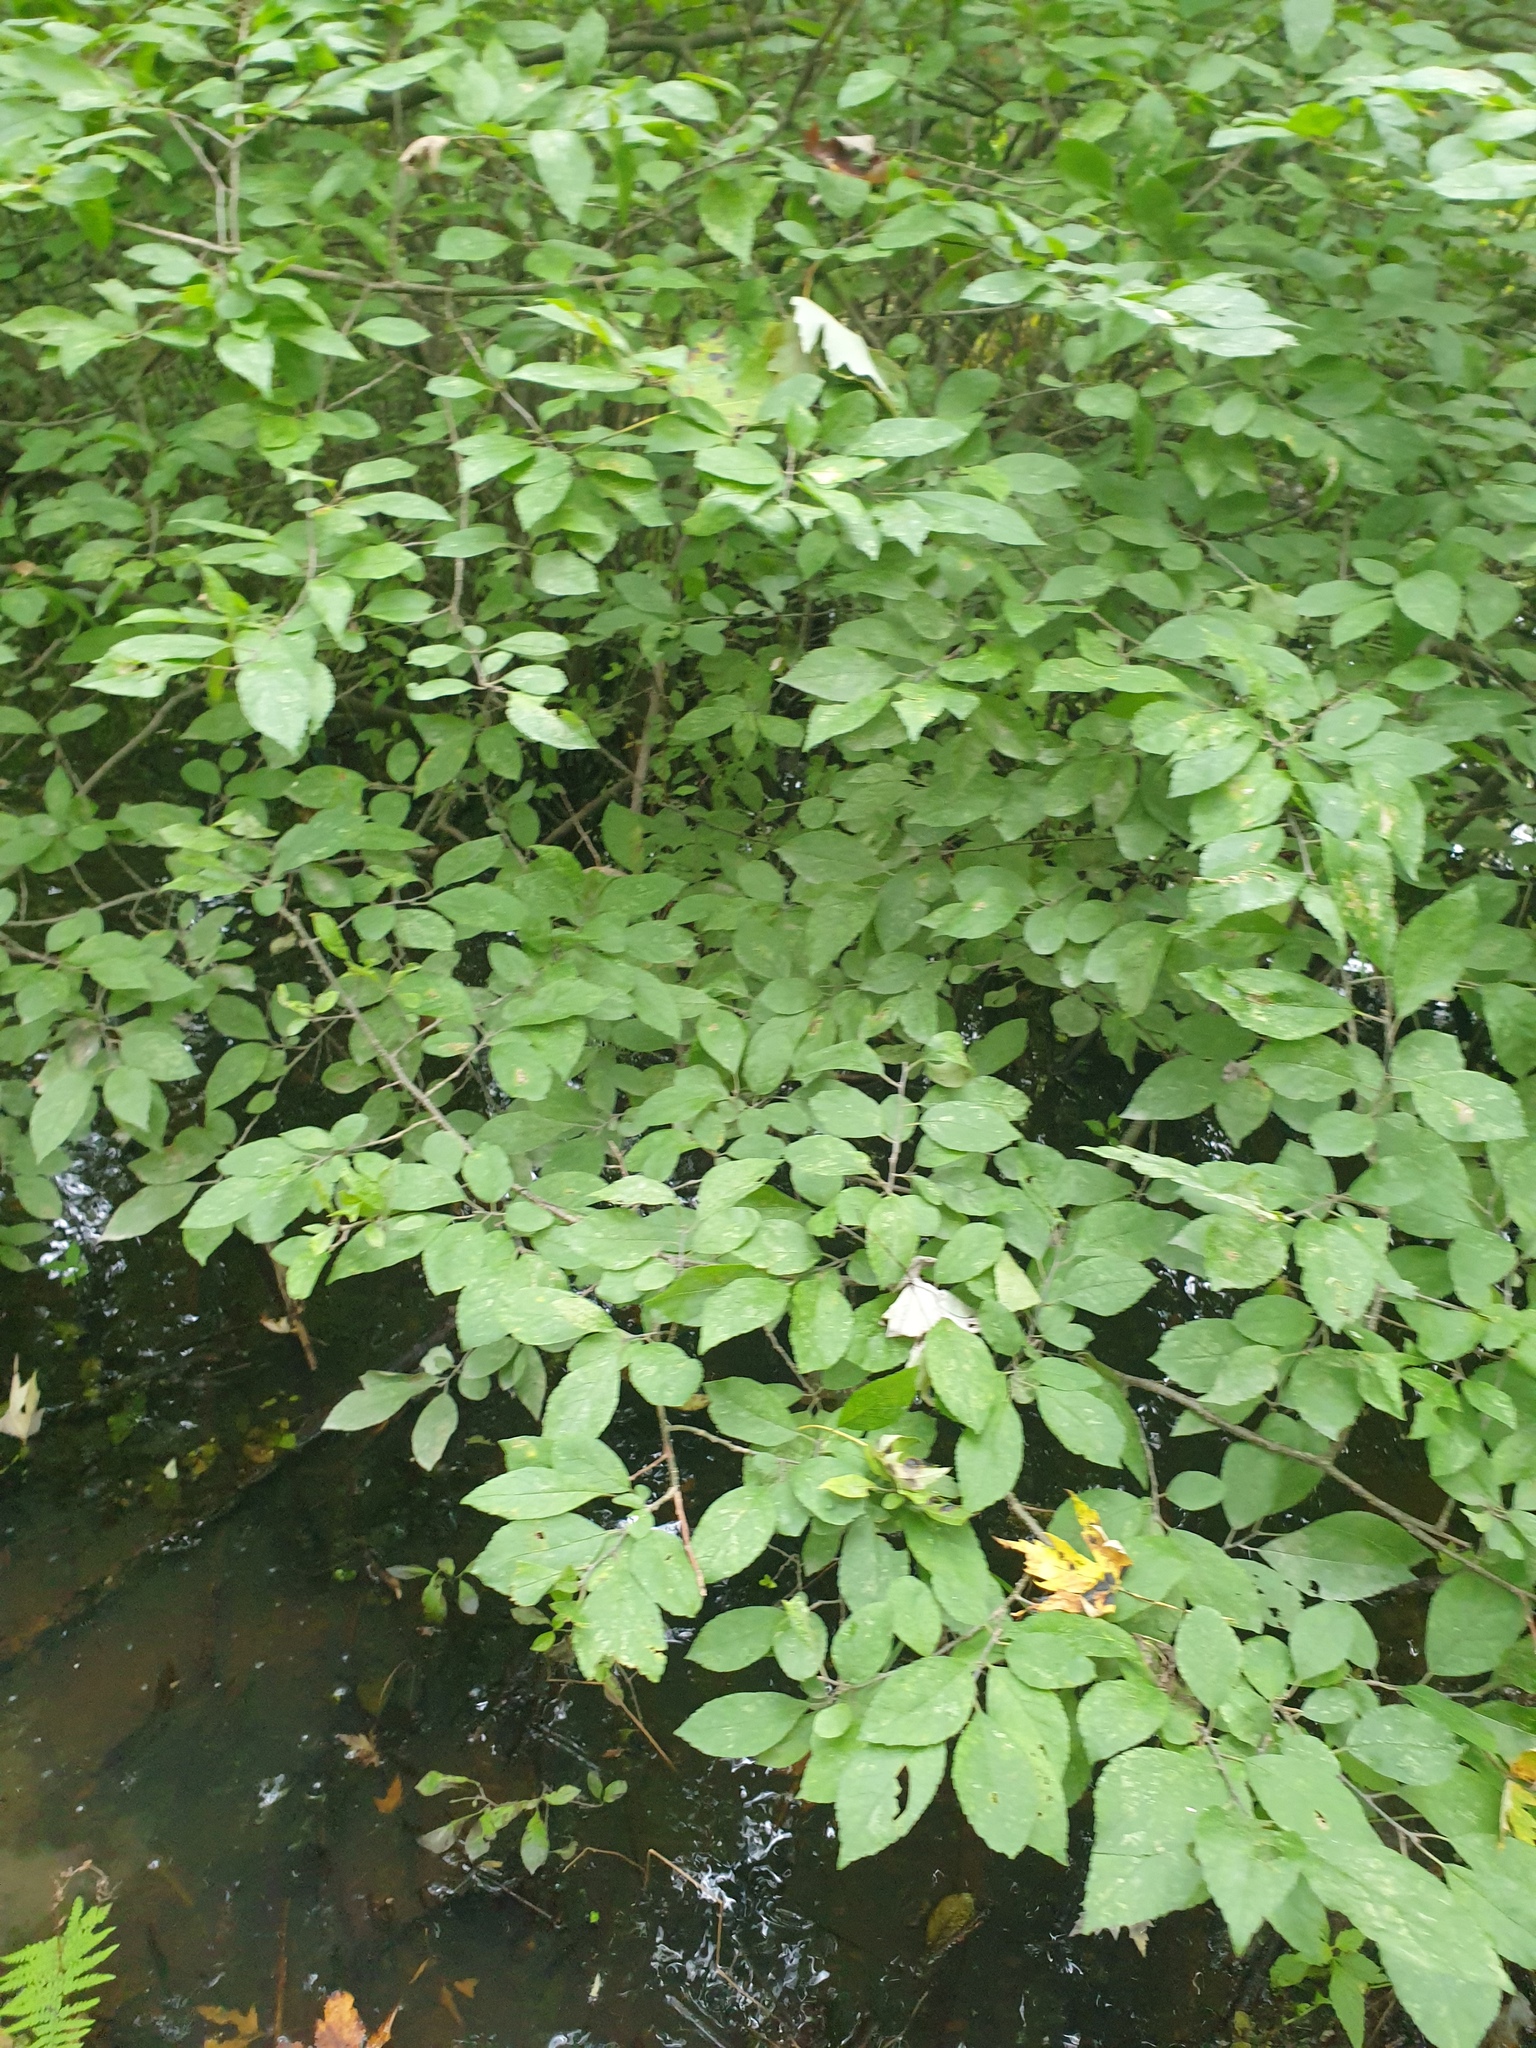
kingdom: Plantae
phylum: Tracheophyta
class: Magnoliopsida
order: Aquifoliales
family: Aquifoliaceae
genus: Ilex
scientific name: Ilex verticillata
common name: Virginia winterberry
